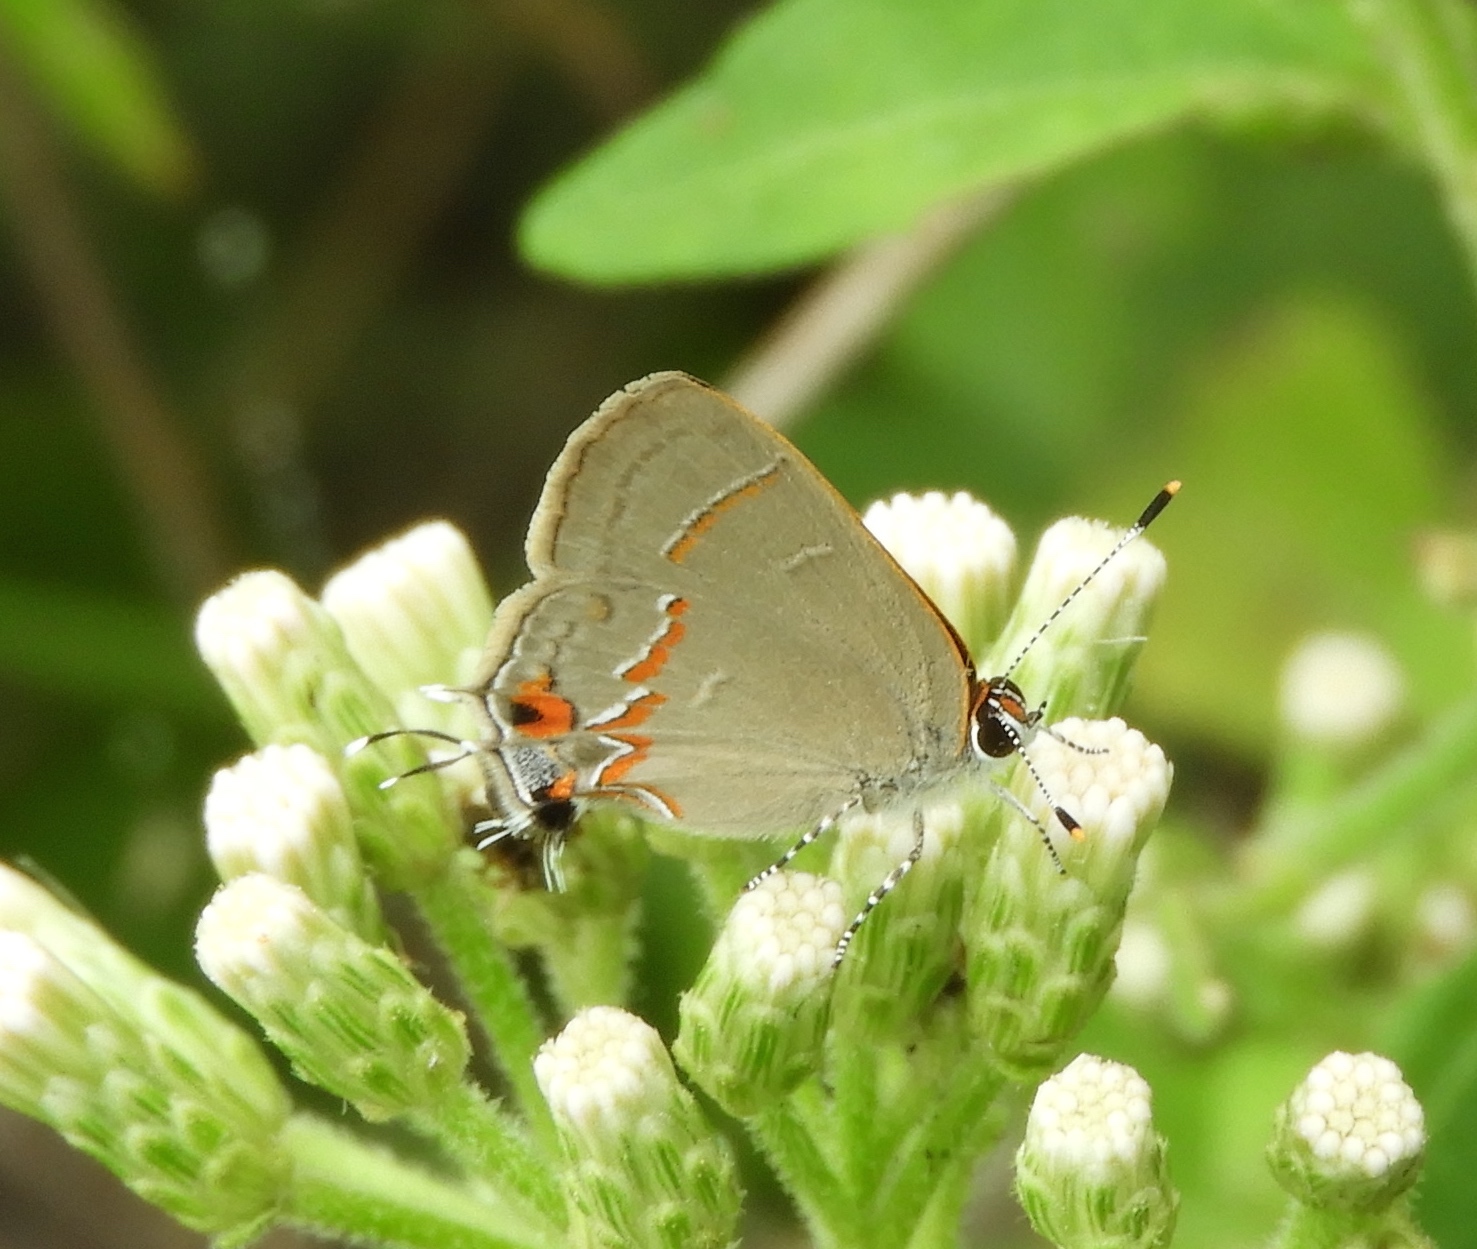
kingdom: Animalia
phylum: Arthropoda
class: Insecta
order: Lepidoptera
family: Lycaenidae
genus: Electrostrymon
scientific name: Electrostrymon endymion
